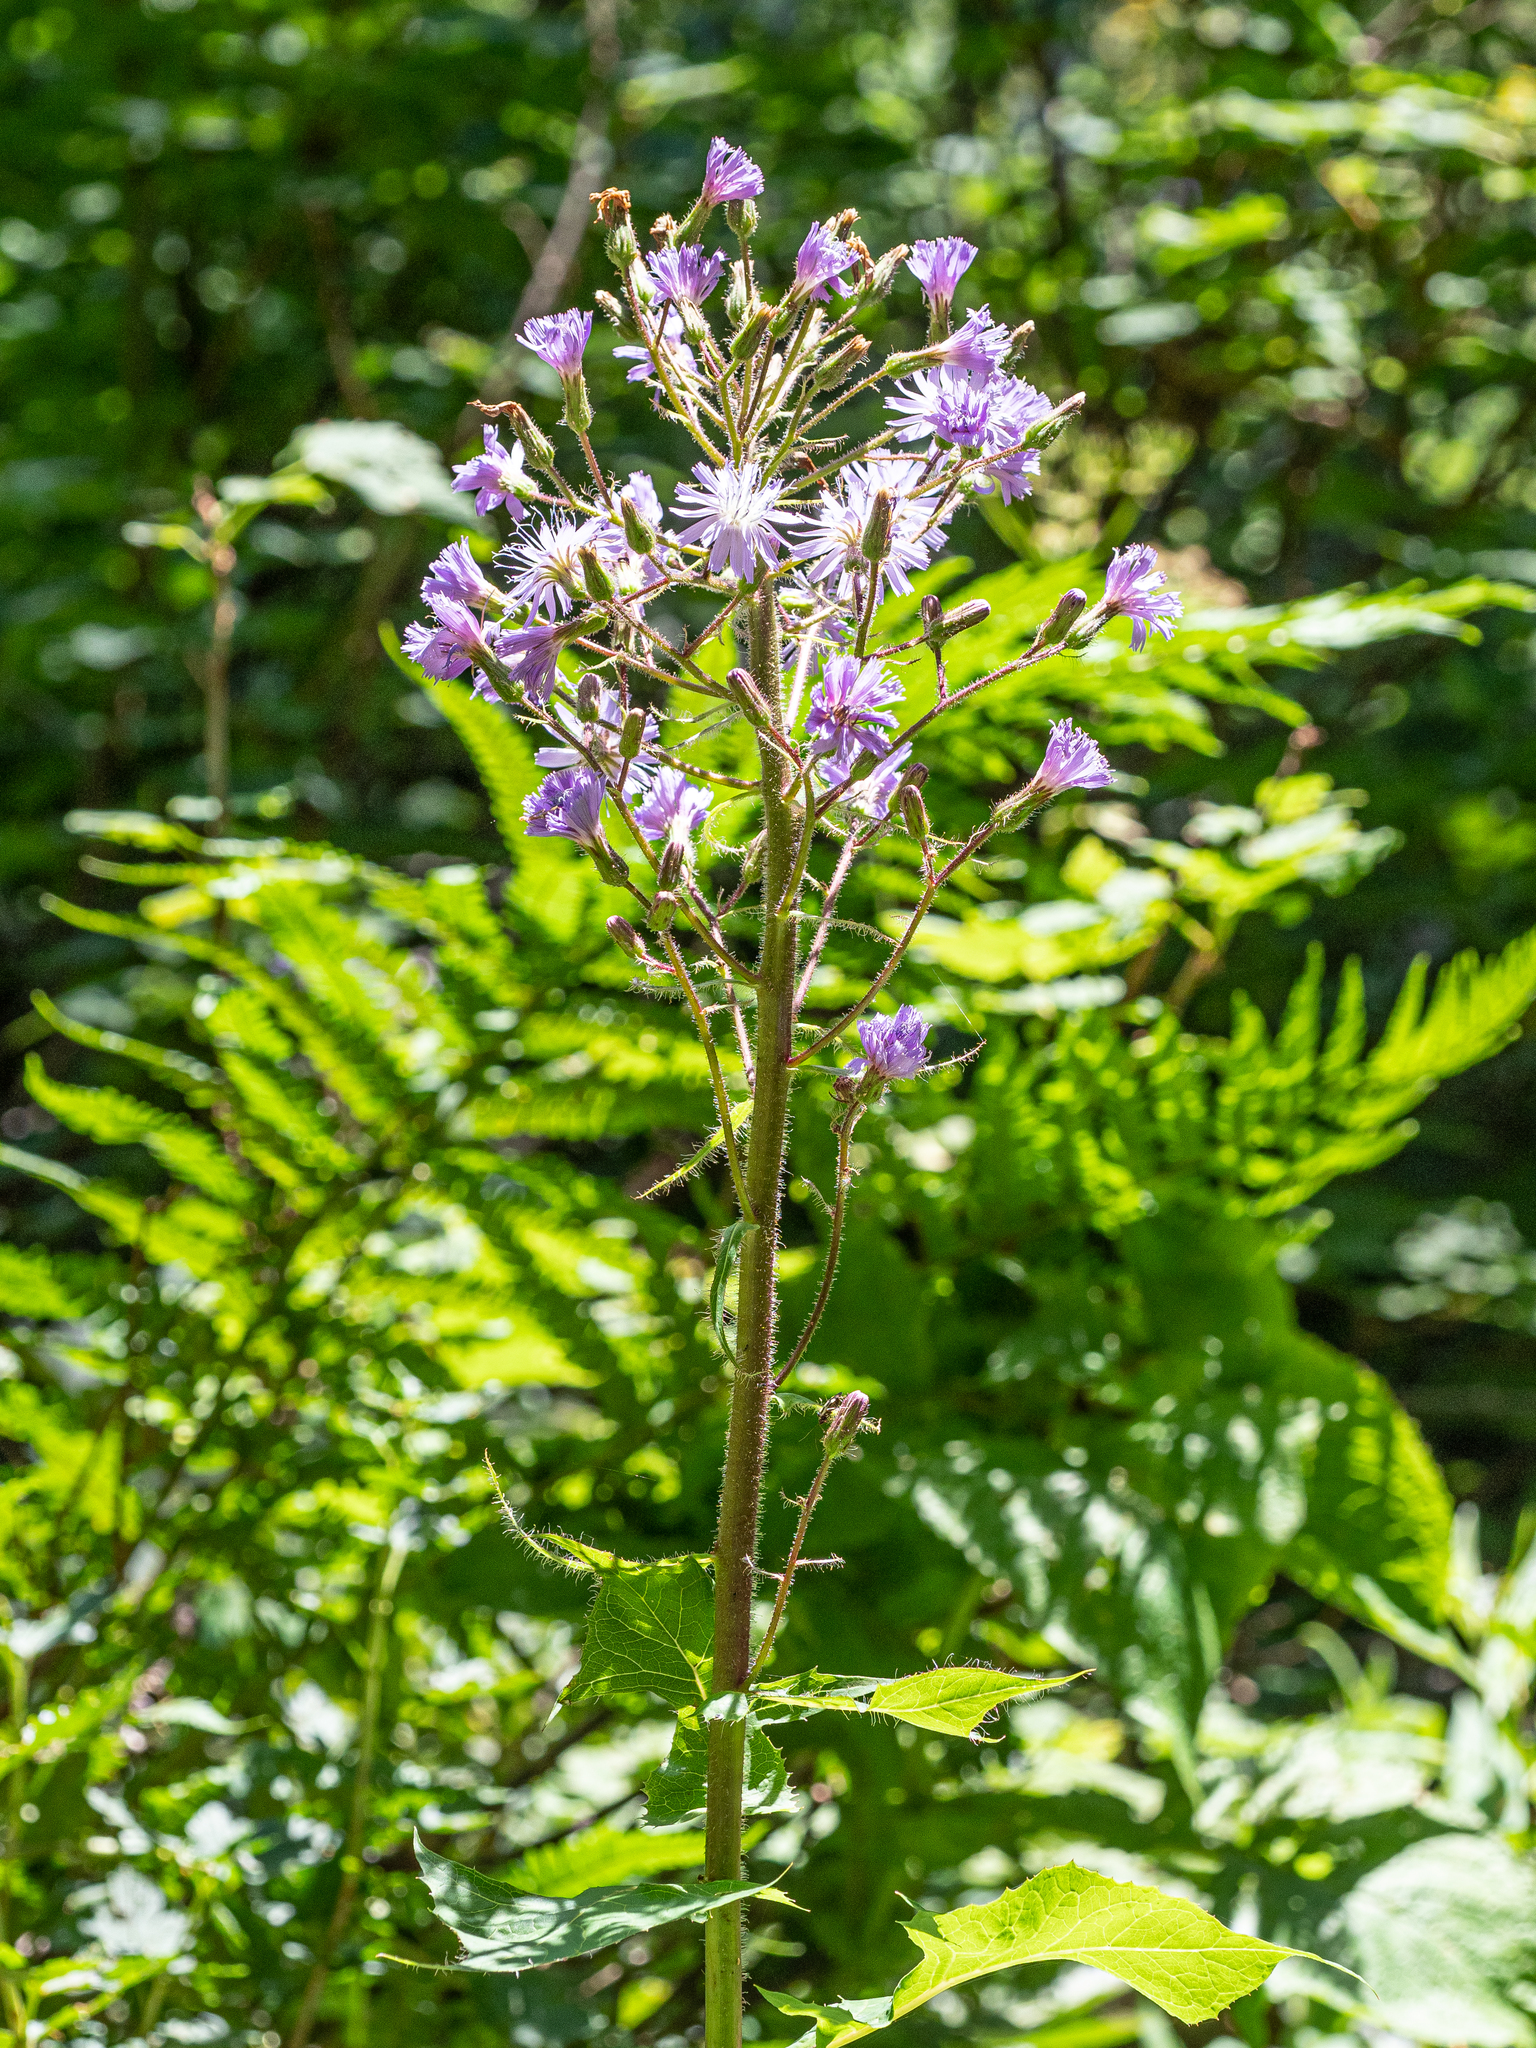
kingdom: Plantae
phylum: Tracheophyta
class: Magnoliopsida
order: Asterales
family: Asteraceae
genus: Cicerbita
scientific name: Cicerbita alpina
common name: Alpine blue-sow-thistle
